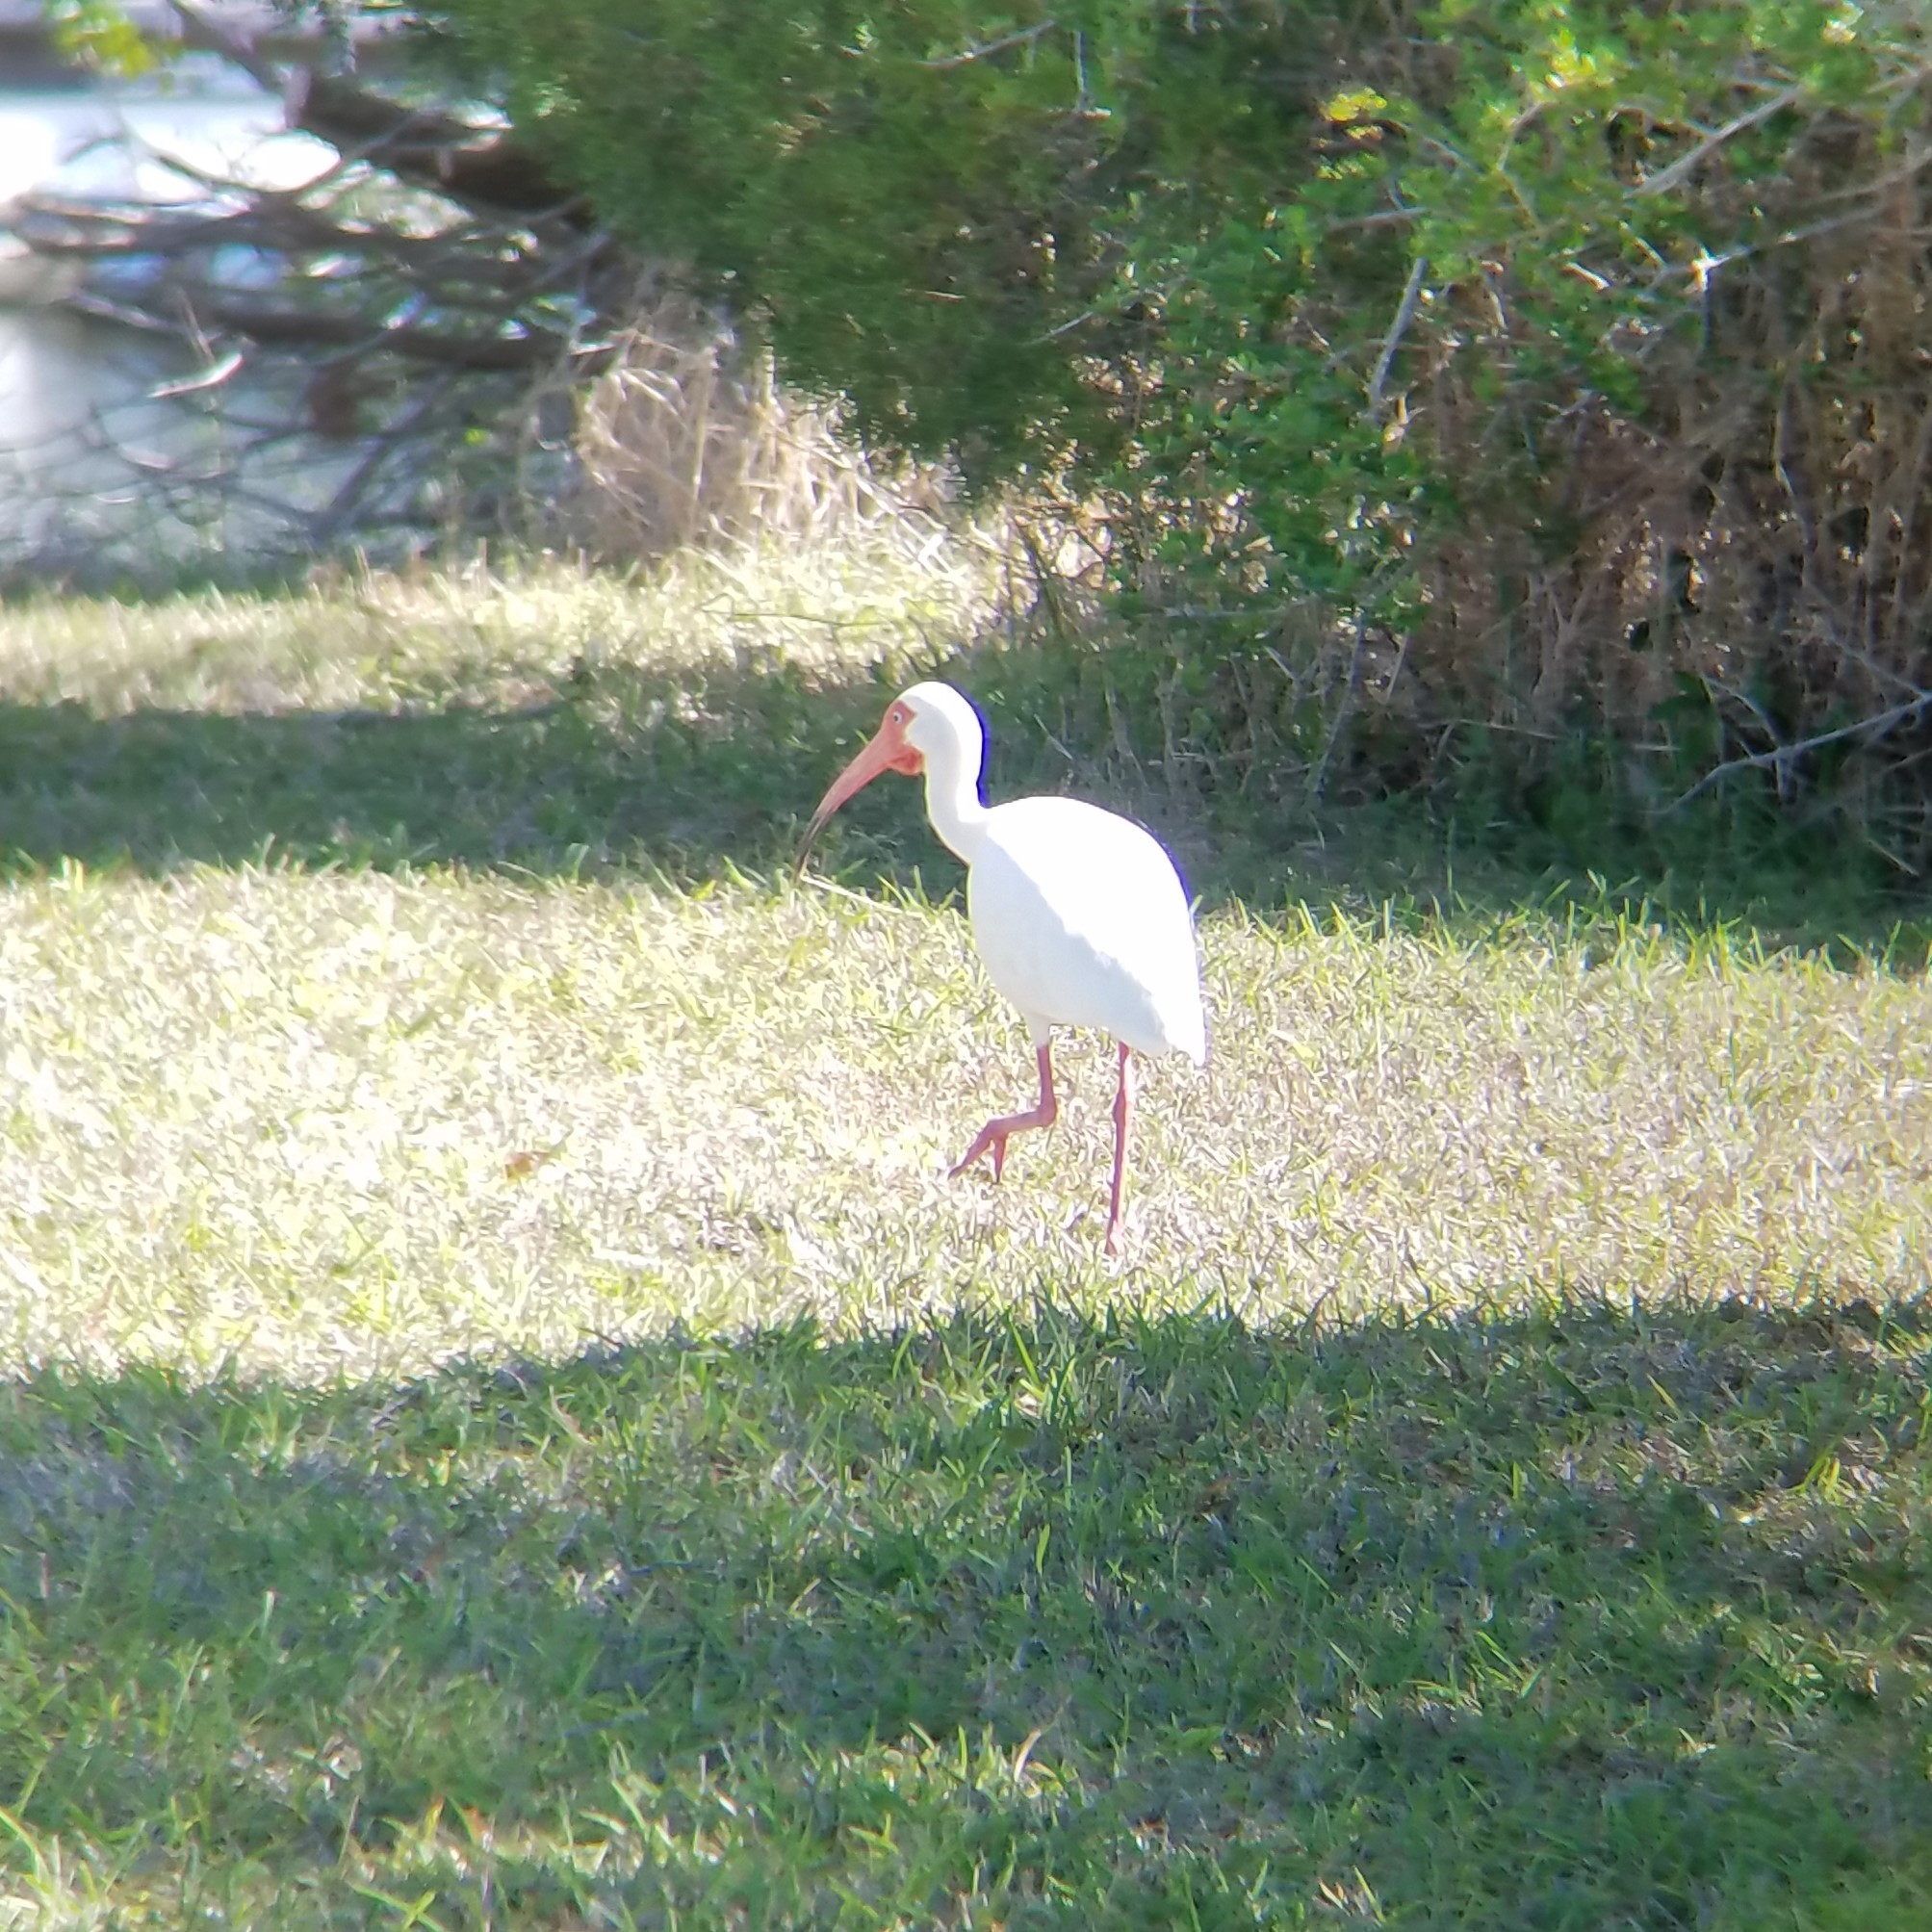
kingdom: Animalia
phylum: Chordata
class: Aves
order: Pelecaniformes
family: Threskiornithidae
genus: Eudocimus
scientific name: Eudocimus albus
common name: White ibis
